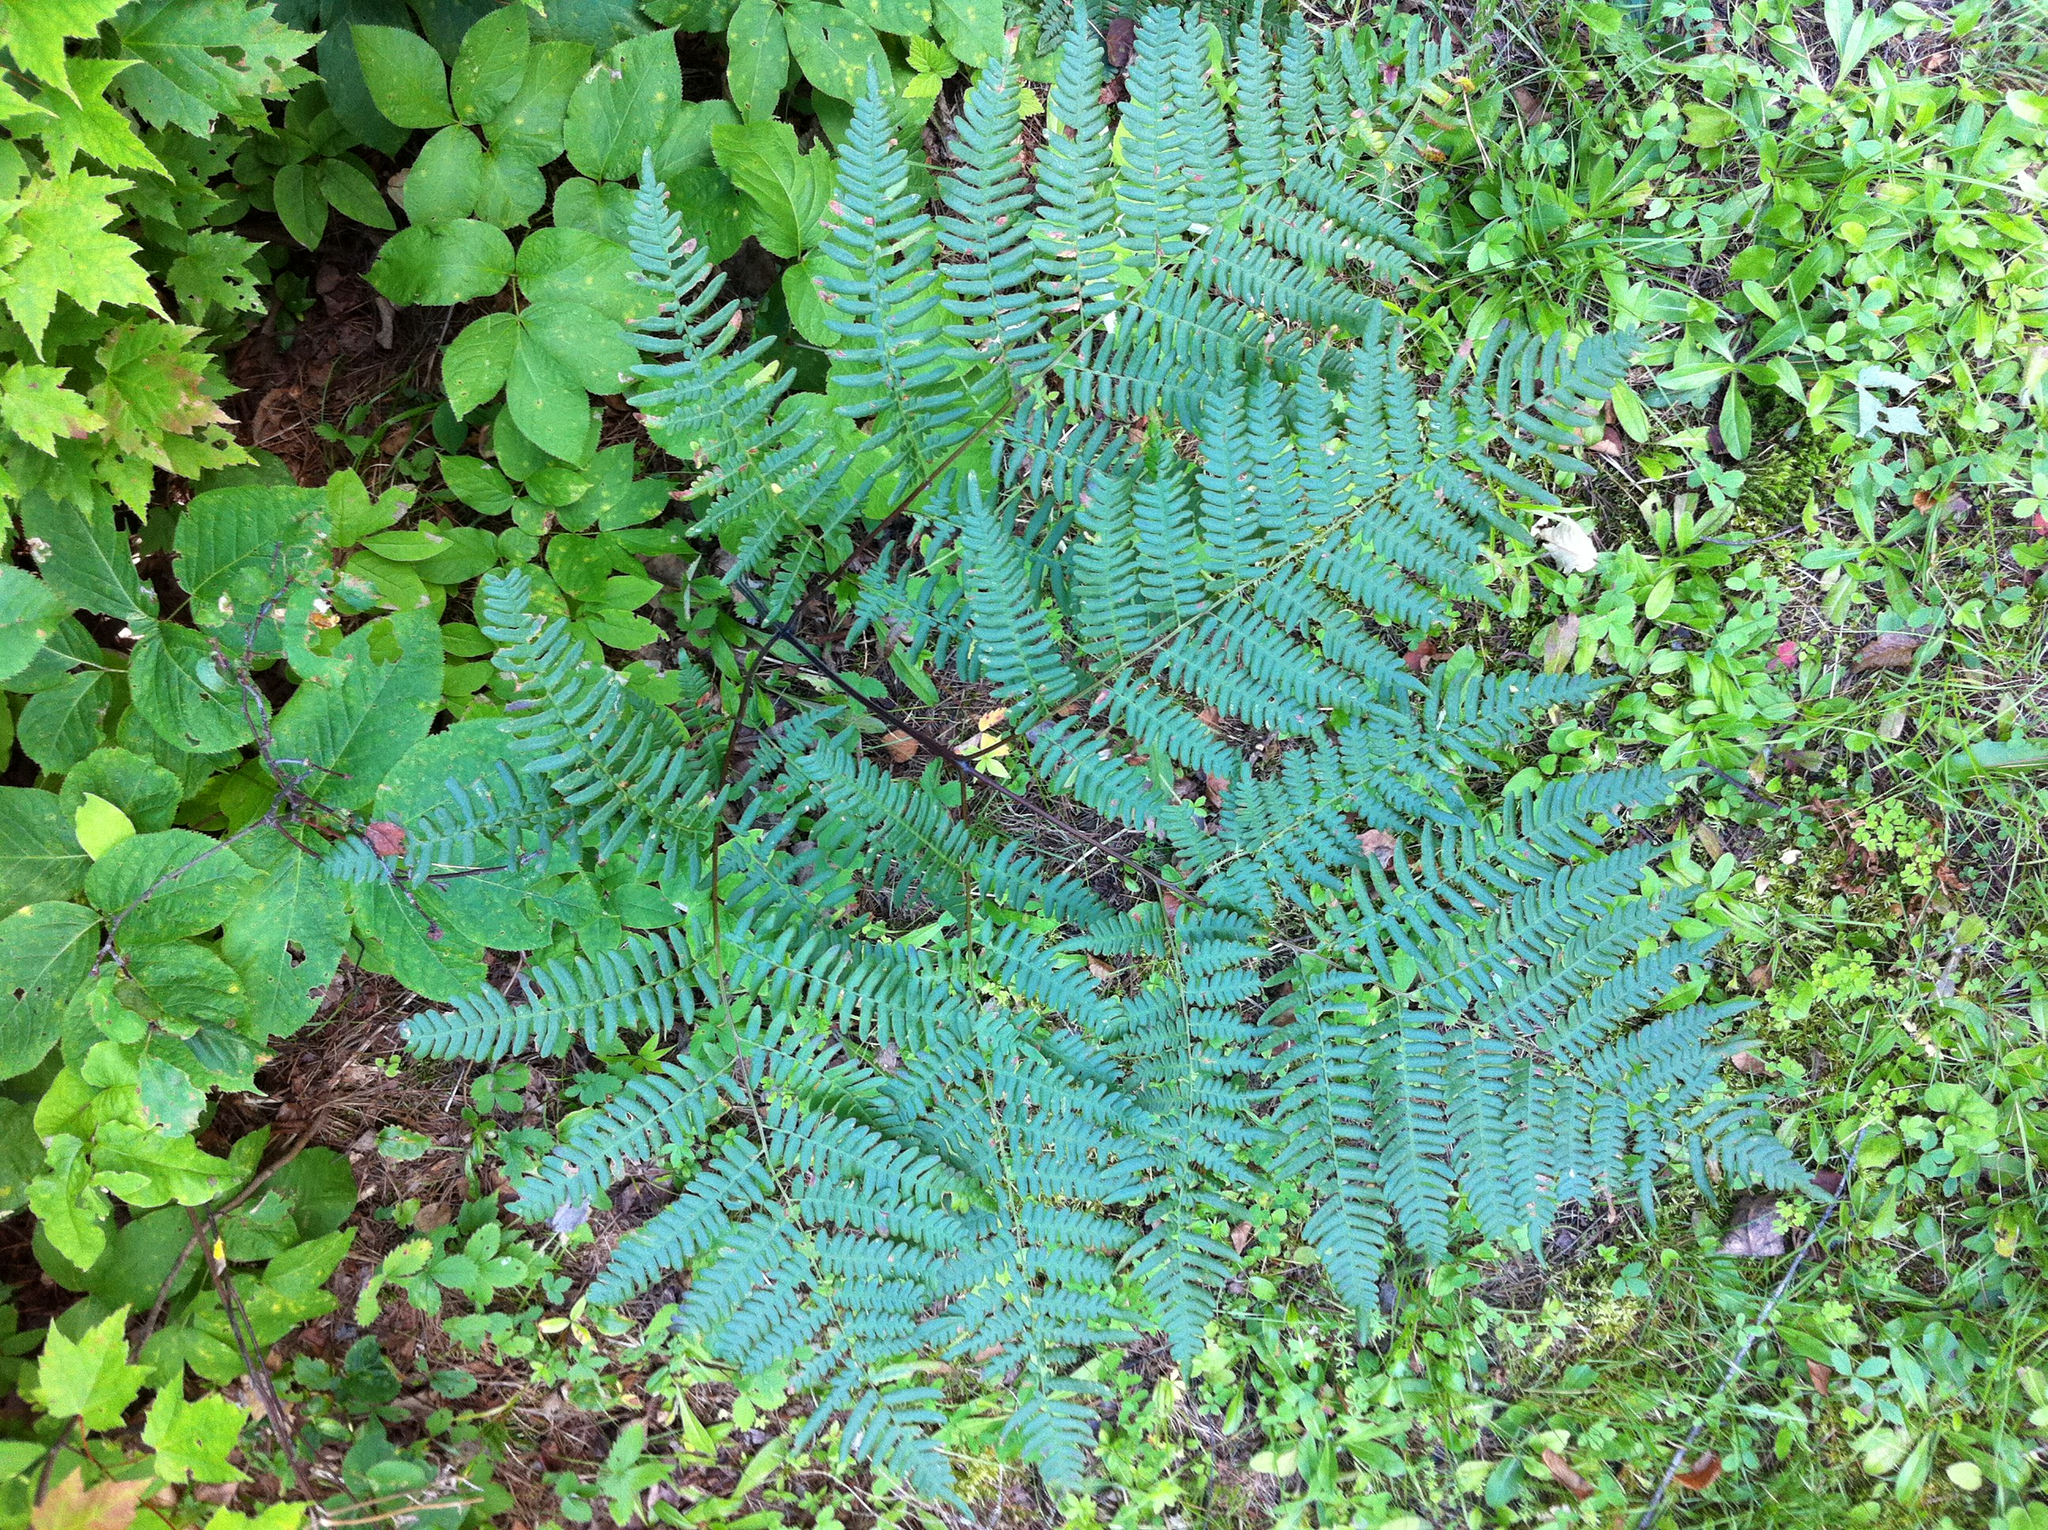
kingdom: Plantae
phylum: Tracheophyta
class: Magnoliopsida
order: Apiales
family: Araliaceae
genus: Aralia
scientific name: Aralia nudicaulis
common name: Wild sarsaparilla
